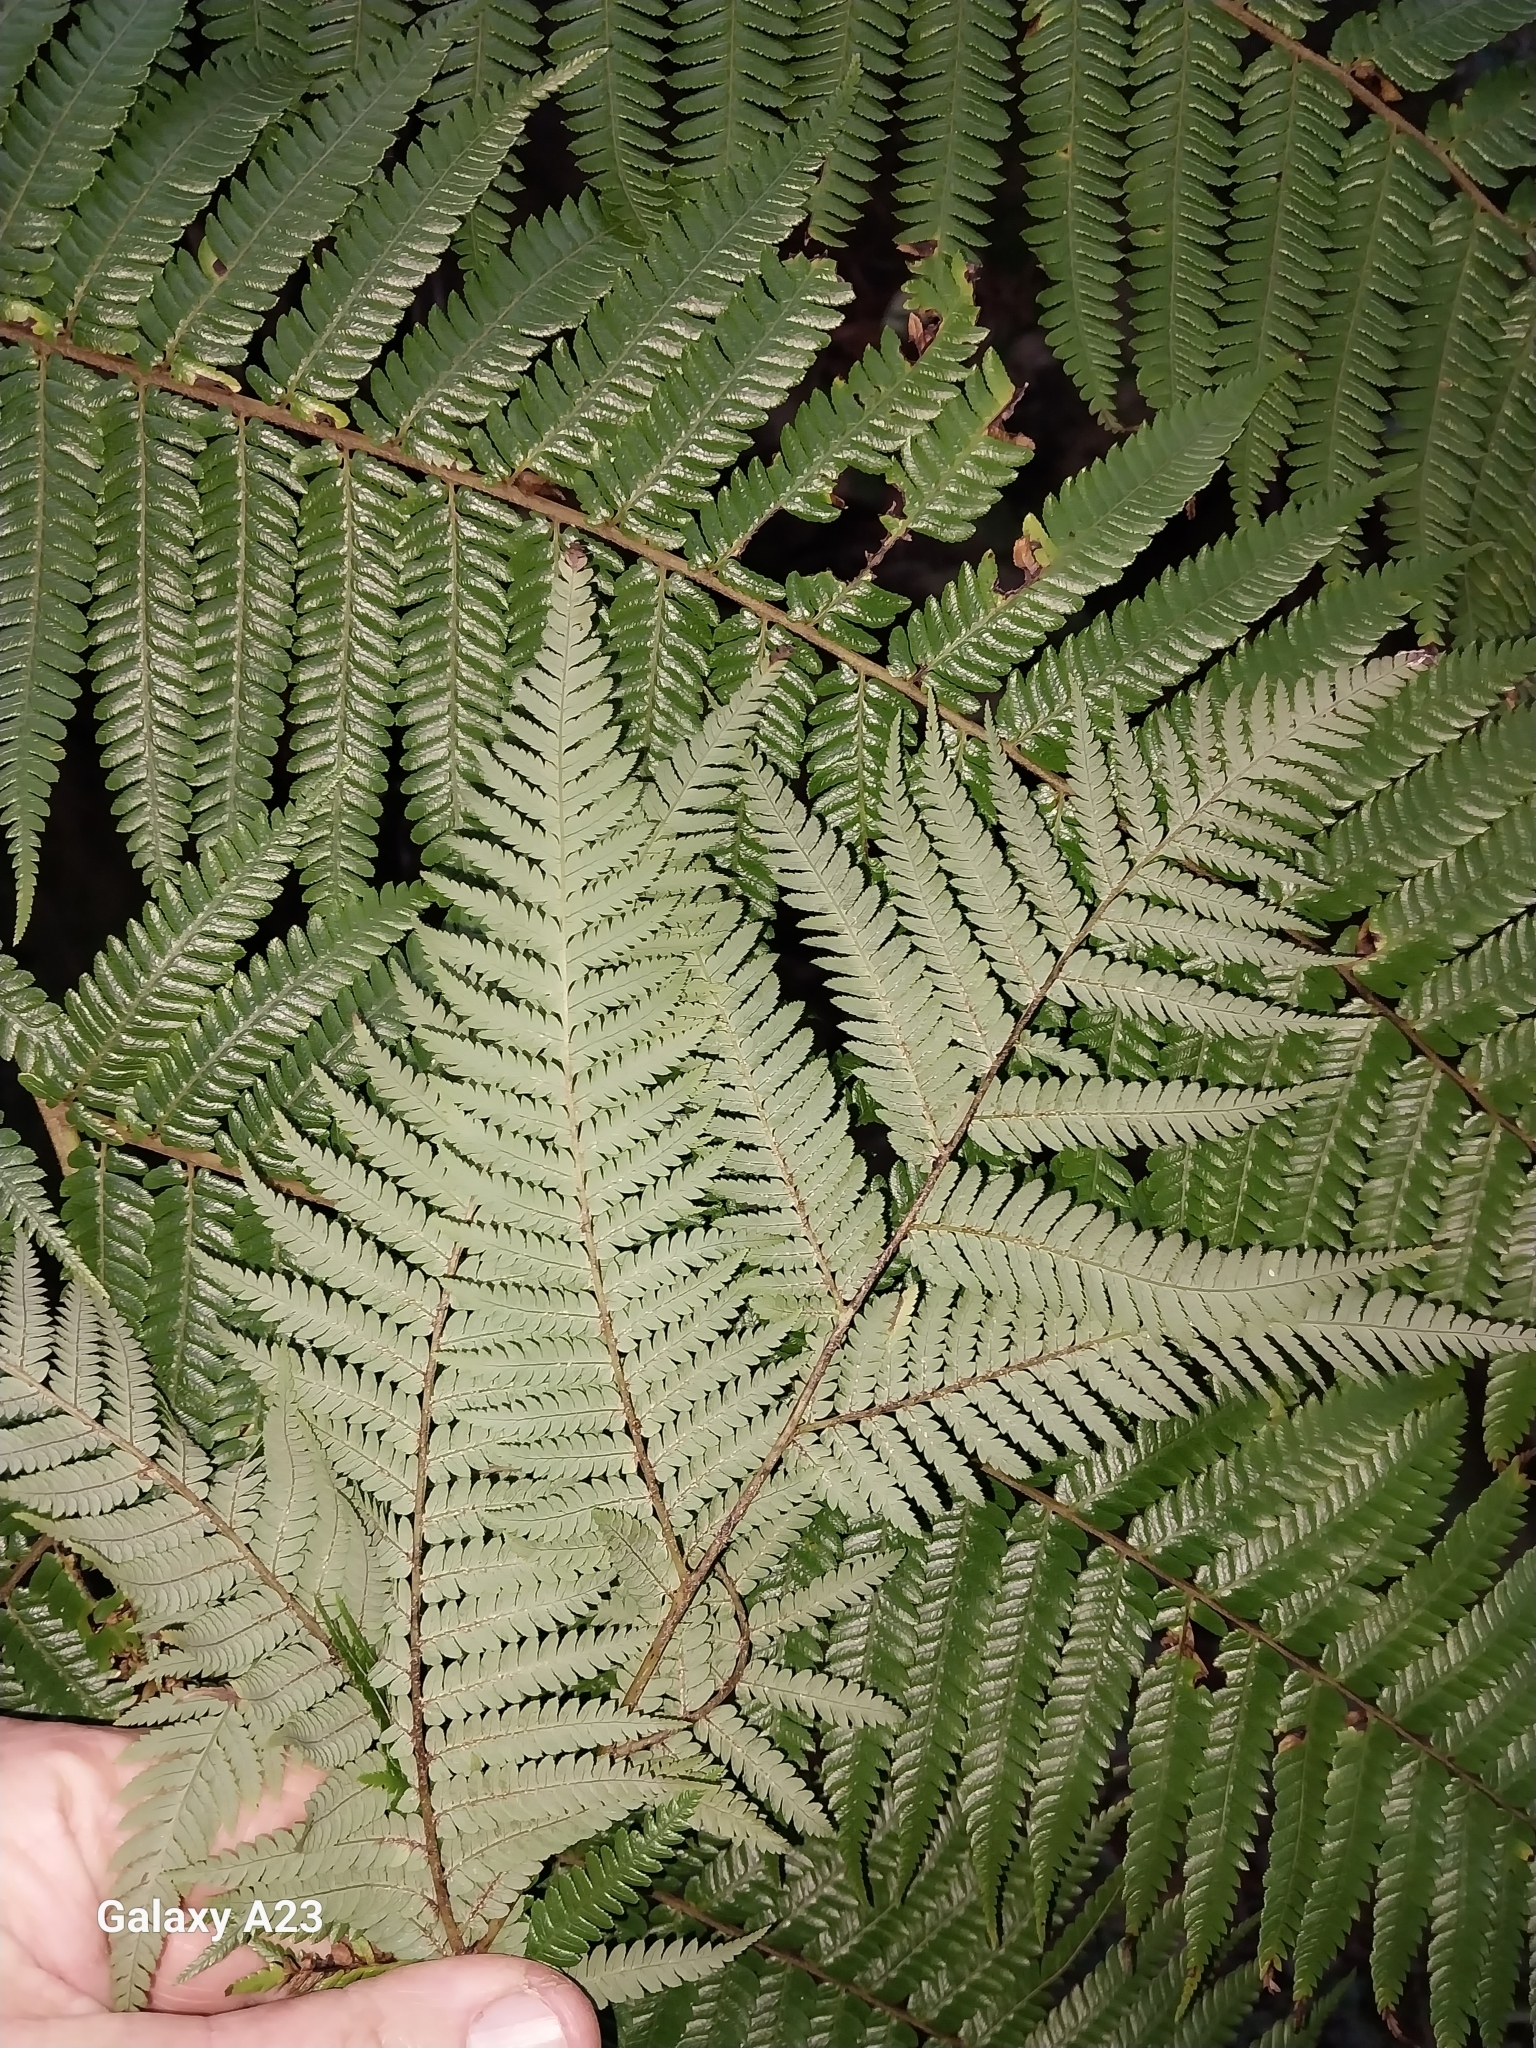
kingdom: Plantae
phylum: Tracheophyta
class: Polypodiopsida
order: Cyatheales
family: Cyatheaceae
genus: Alsophila
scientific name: Alsophila dealbata
